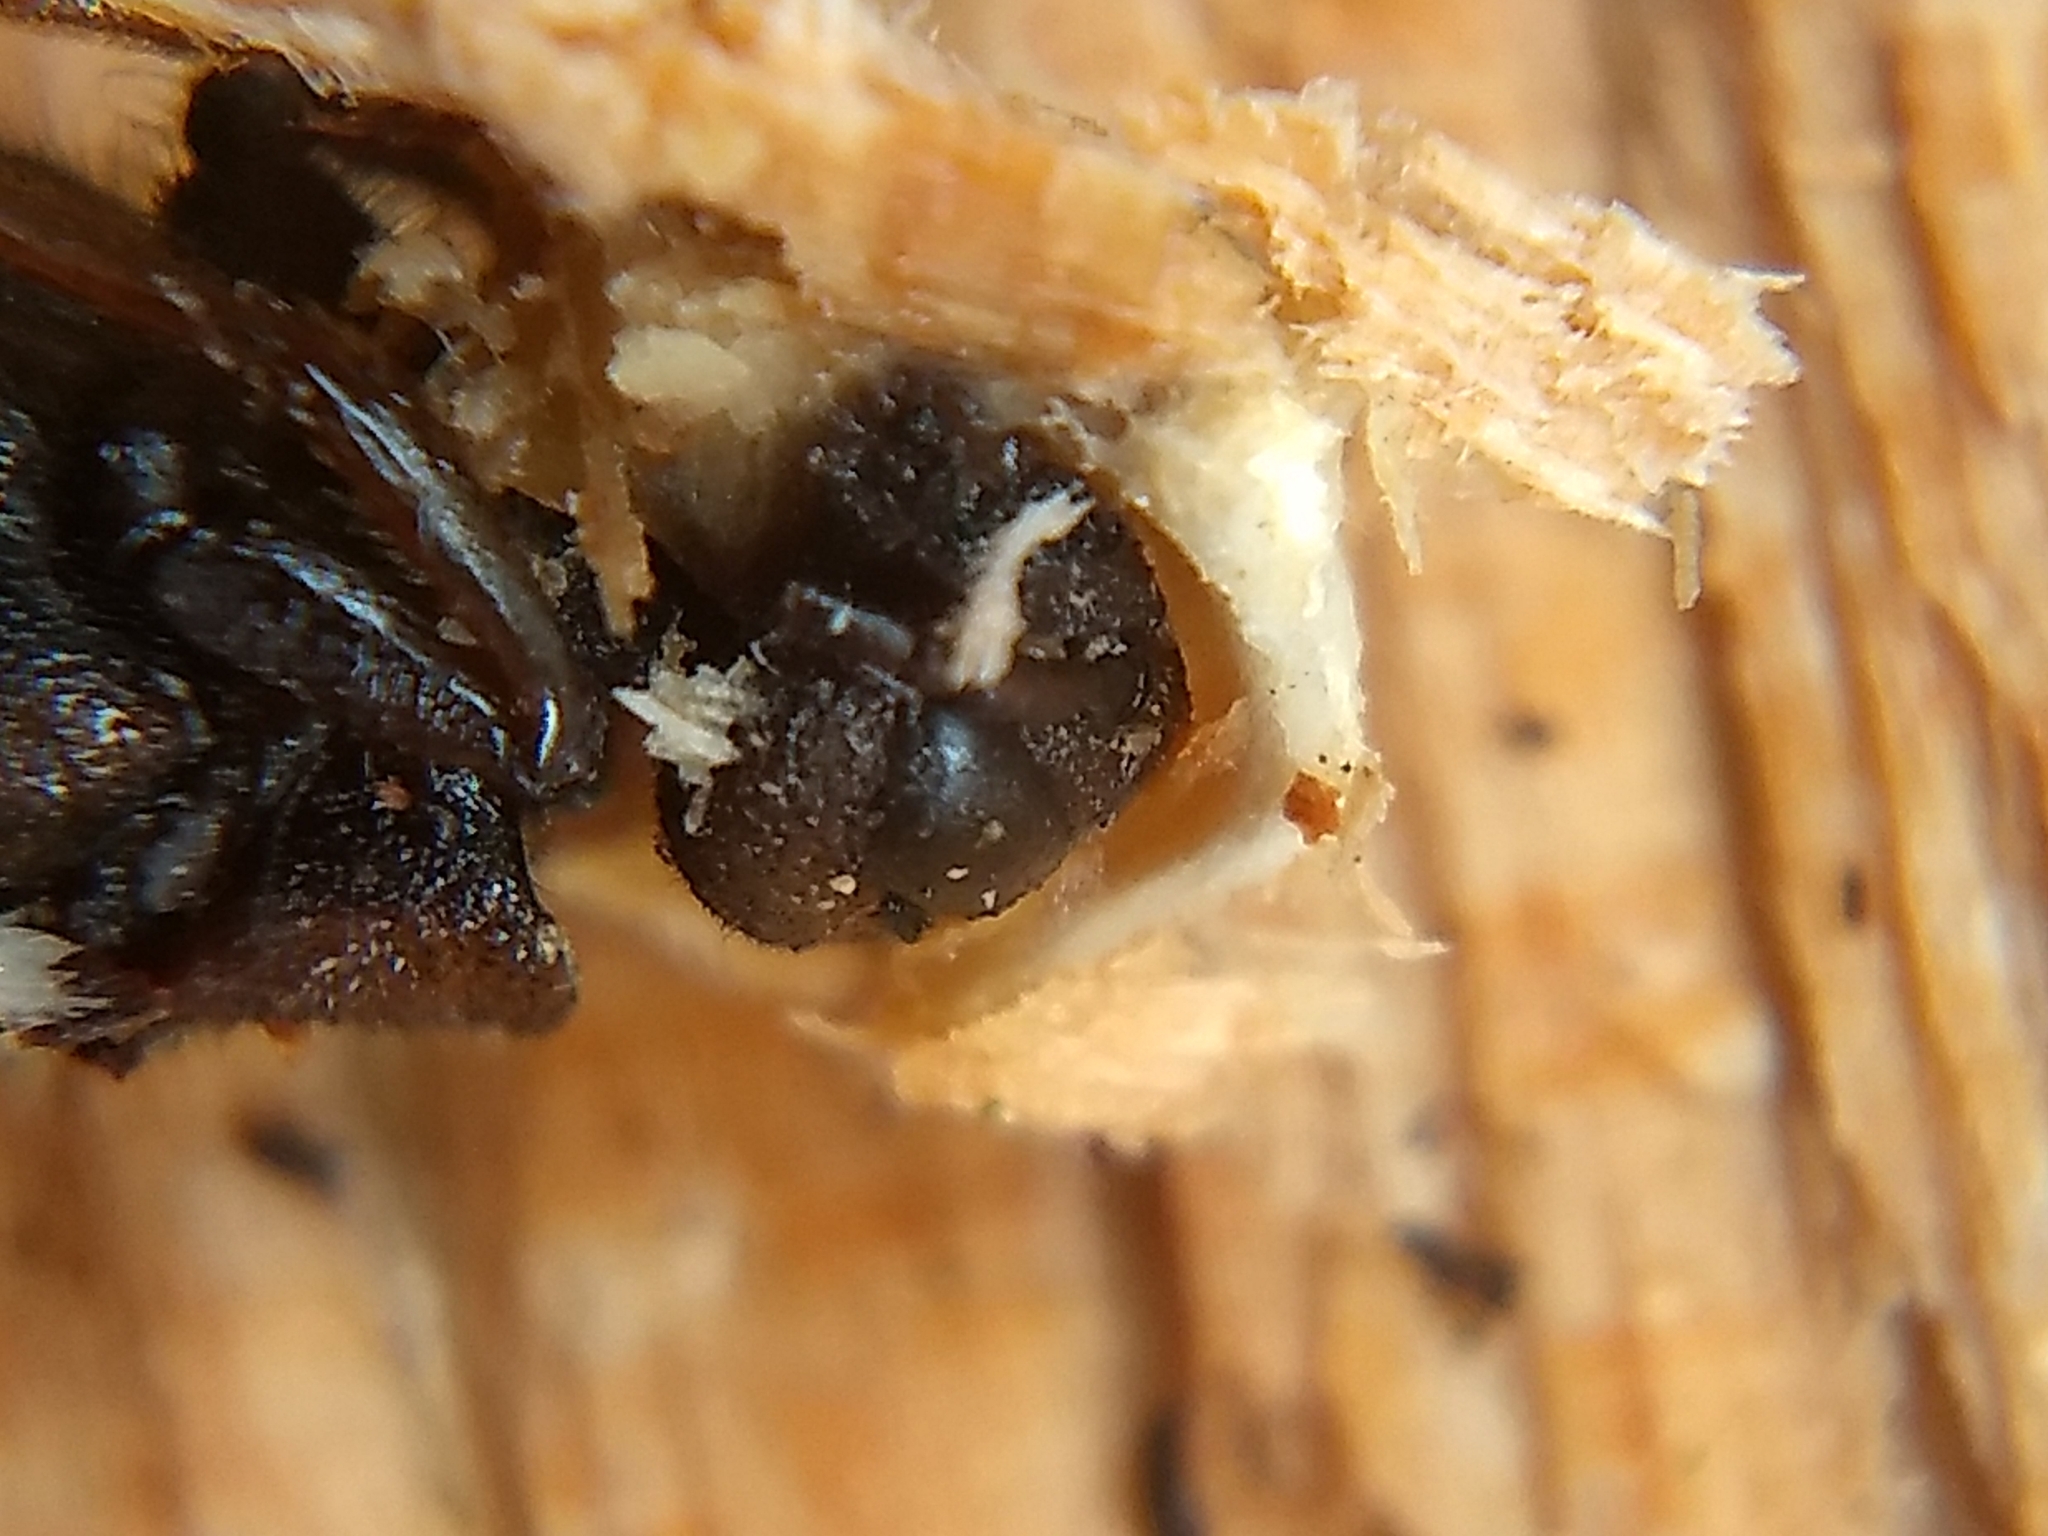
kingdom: Animalia
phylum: Arthropoda
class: Insecta
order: Hymenoptera
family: Siricidae
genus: Tremex
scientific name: Tremex columba
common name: Wasp
